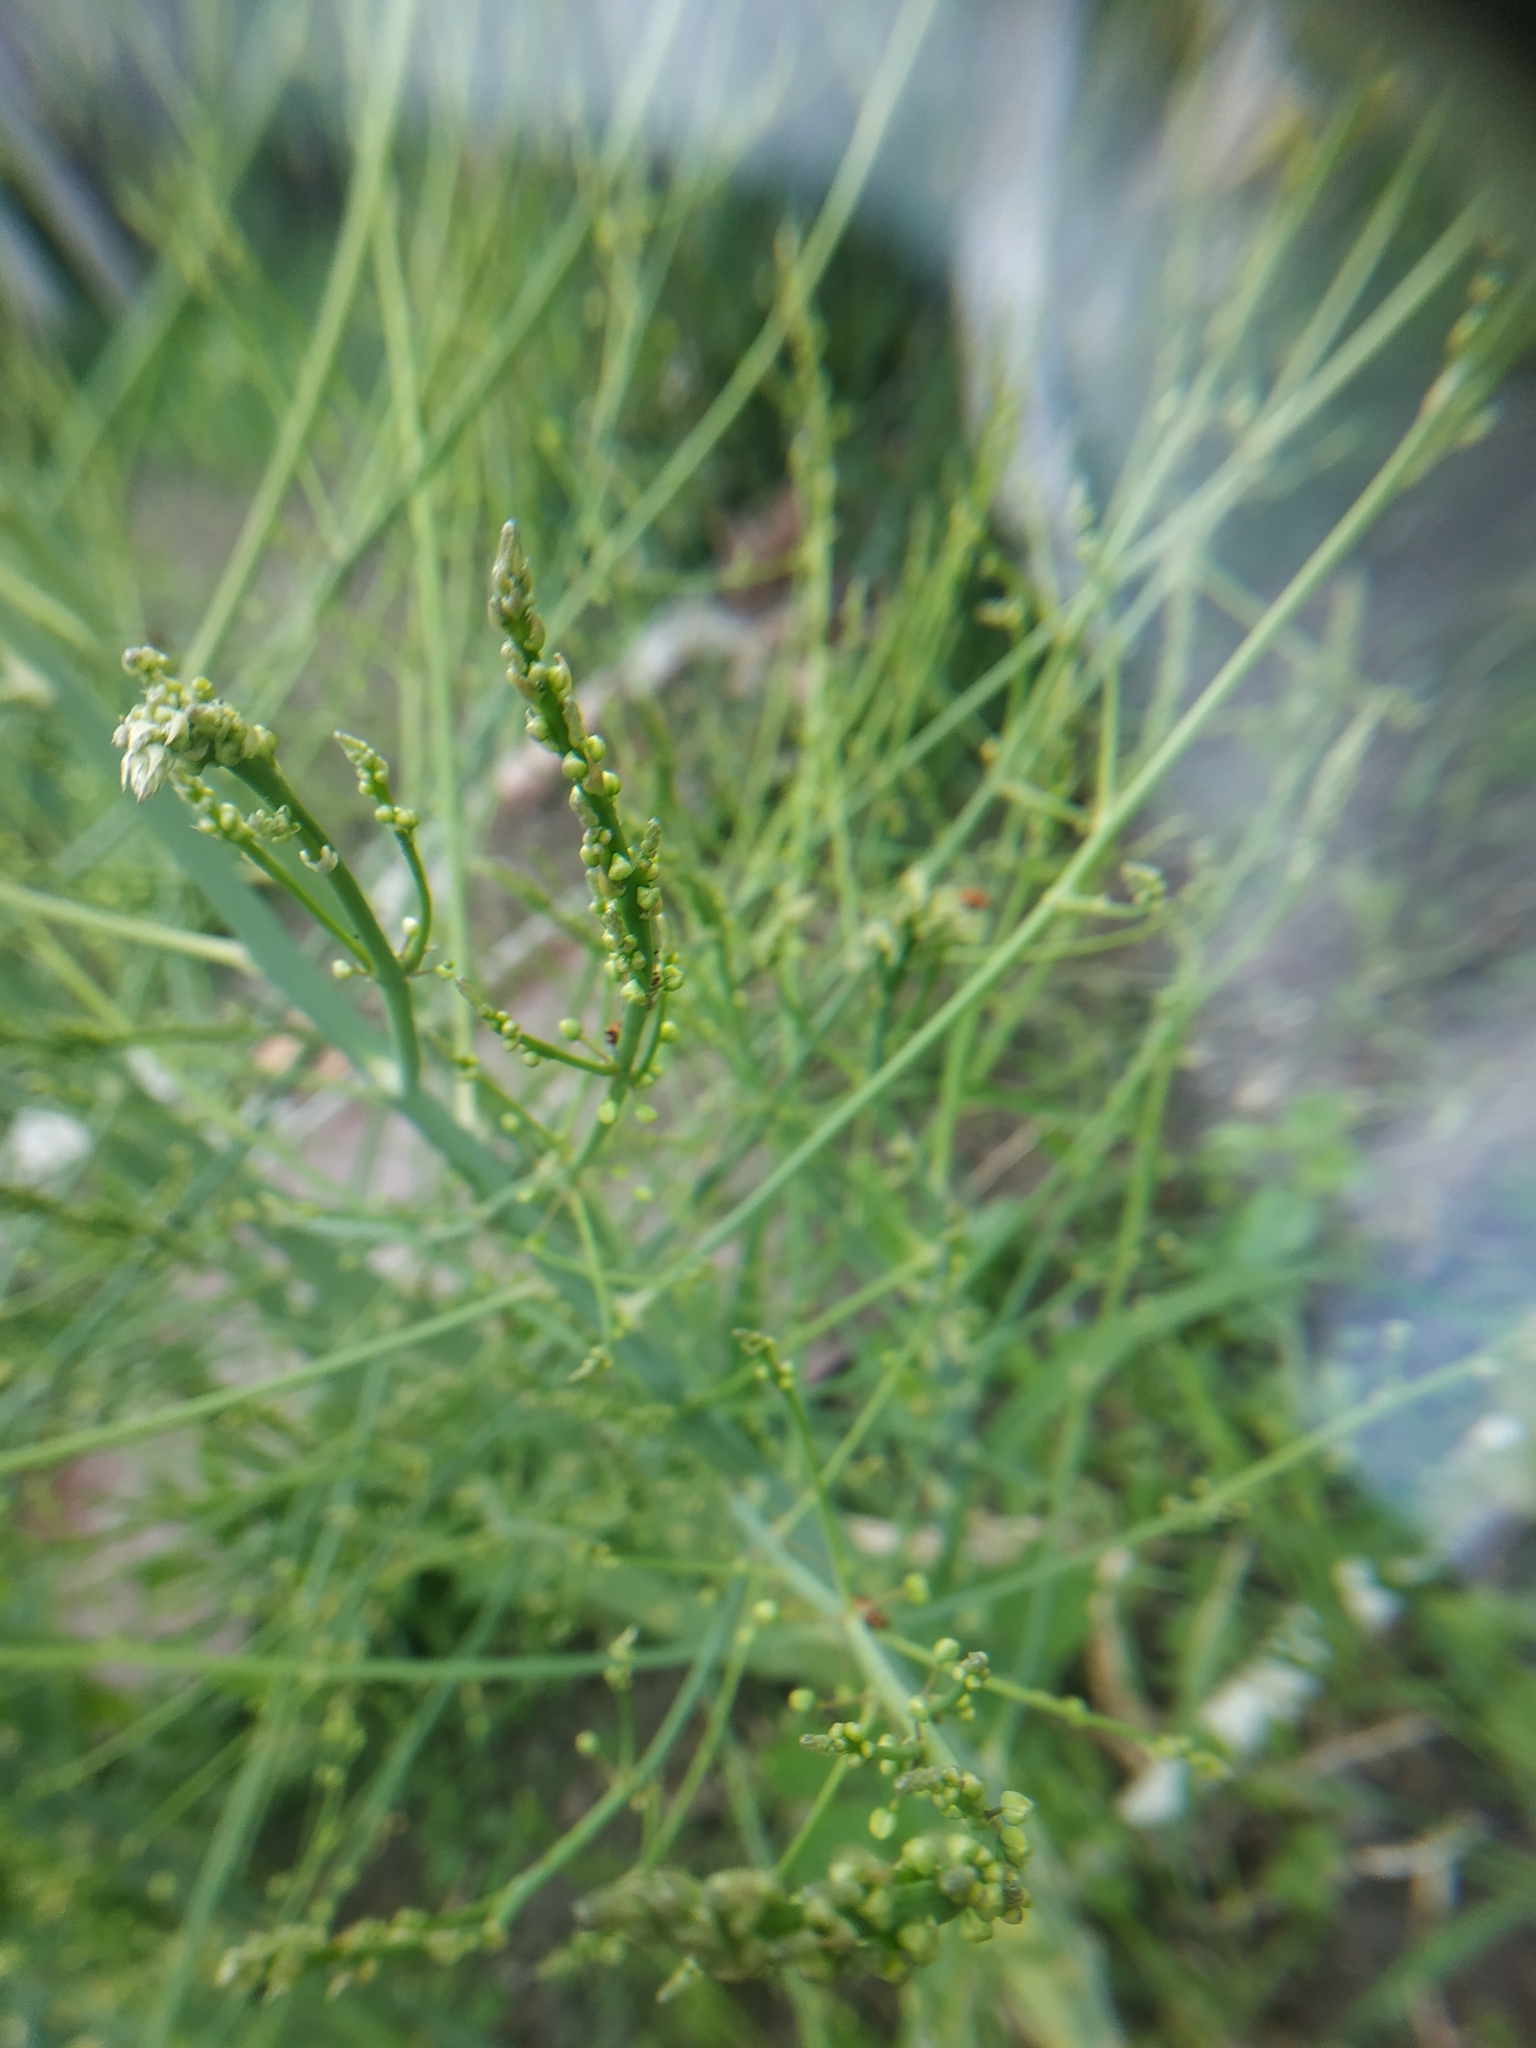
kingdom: Plantae
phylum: Tracheophyta
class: Liliopsida
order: Asparagales
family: Asparagaceae
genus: Asparagus
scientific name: Asparagus officinalis
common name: Garden asparagus
